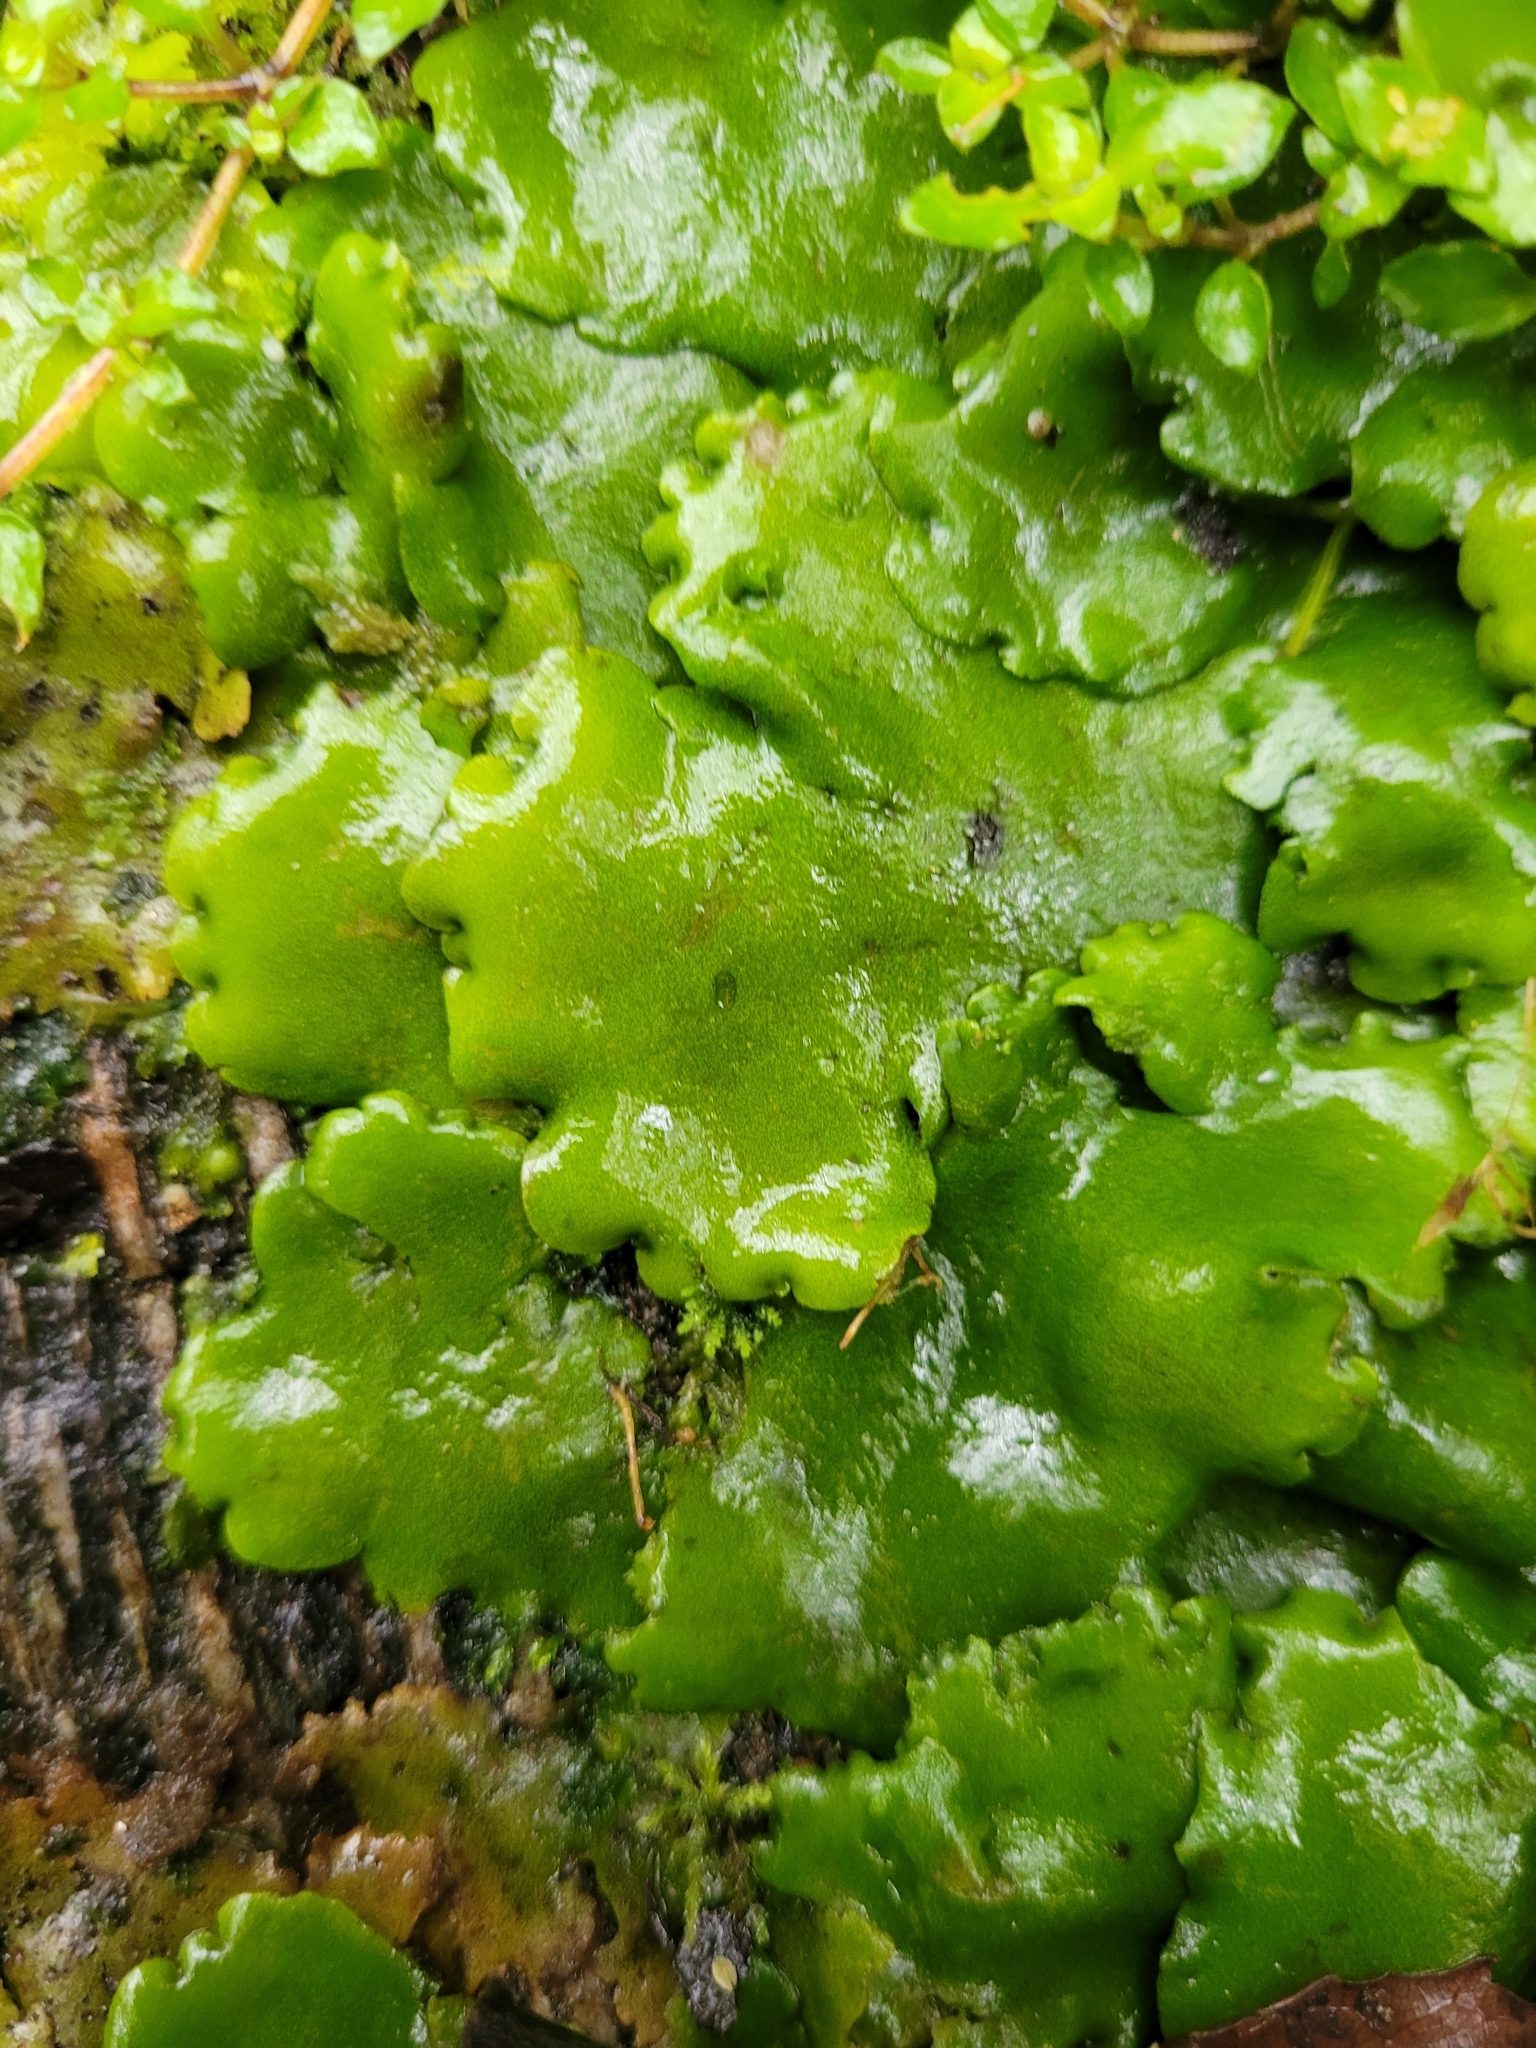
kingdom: Plantae
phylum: Marchantiophyta
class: Marchantiopsida
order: Marchantiales
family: Monocleaceae
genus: Monoclea
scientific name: Monoclea forsteri
